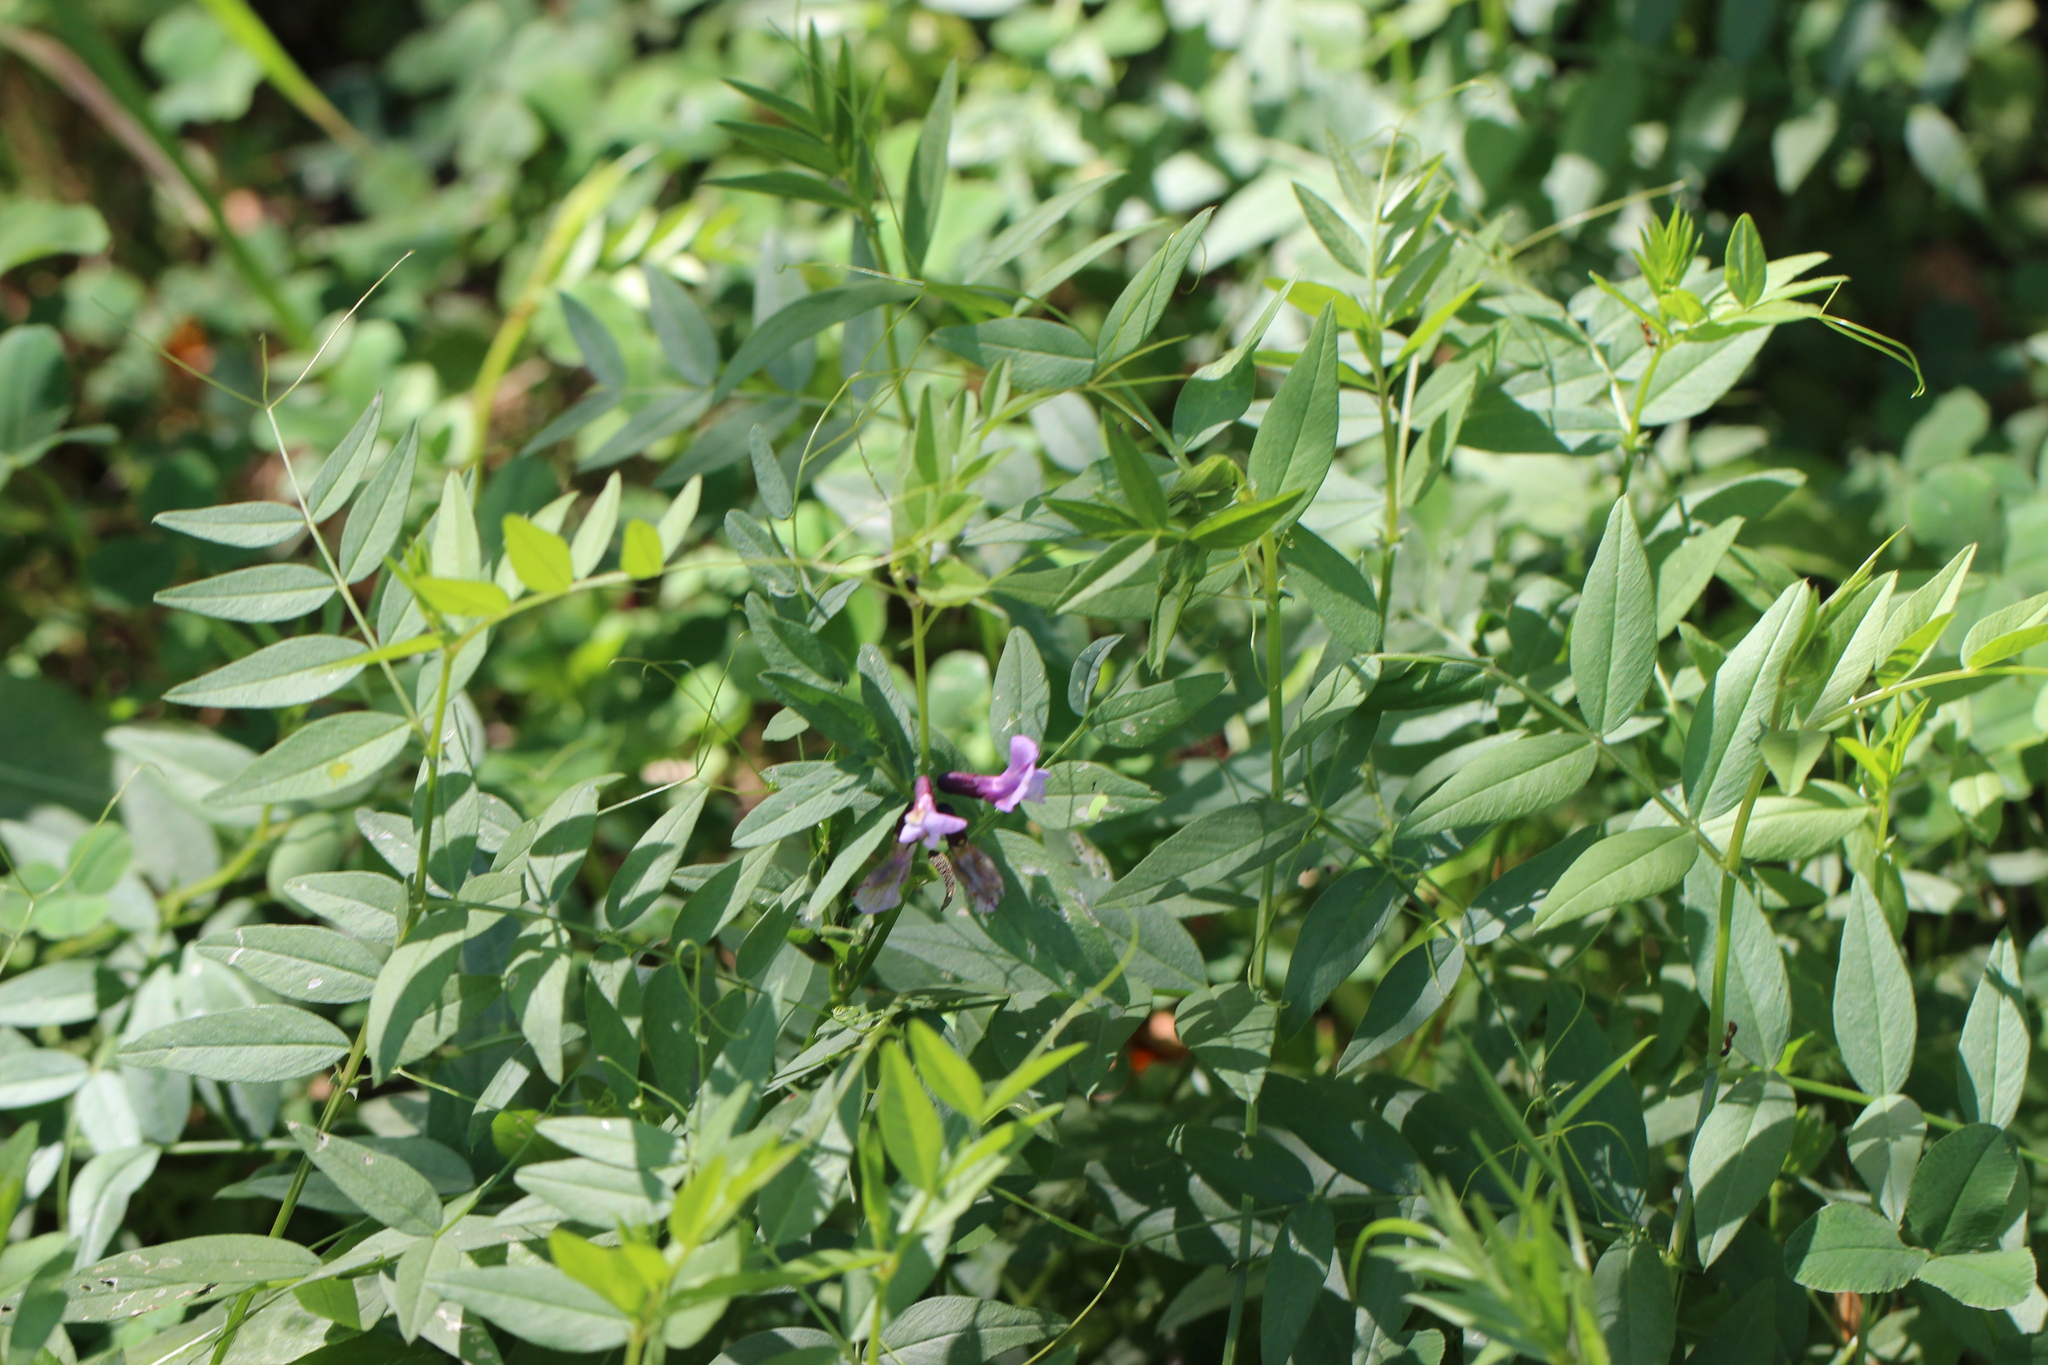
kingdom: Plantae
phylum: Tracheophyta
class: Magnoliopsida
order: Fabales
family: Fabaceae
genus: Vicia
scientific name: Vicia sepium
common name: Bush vetch
